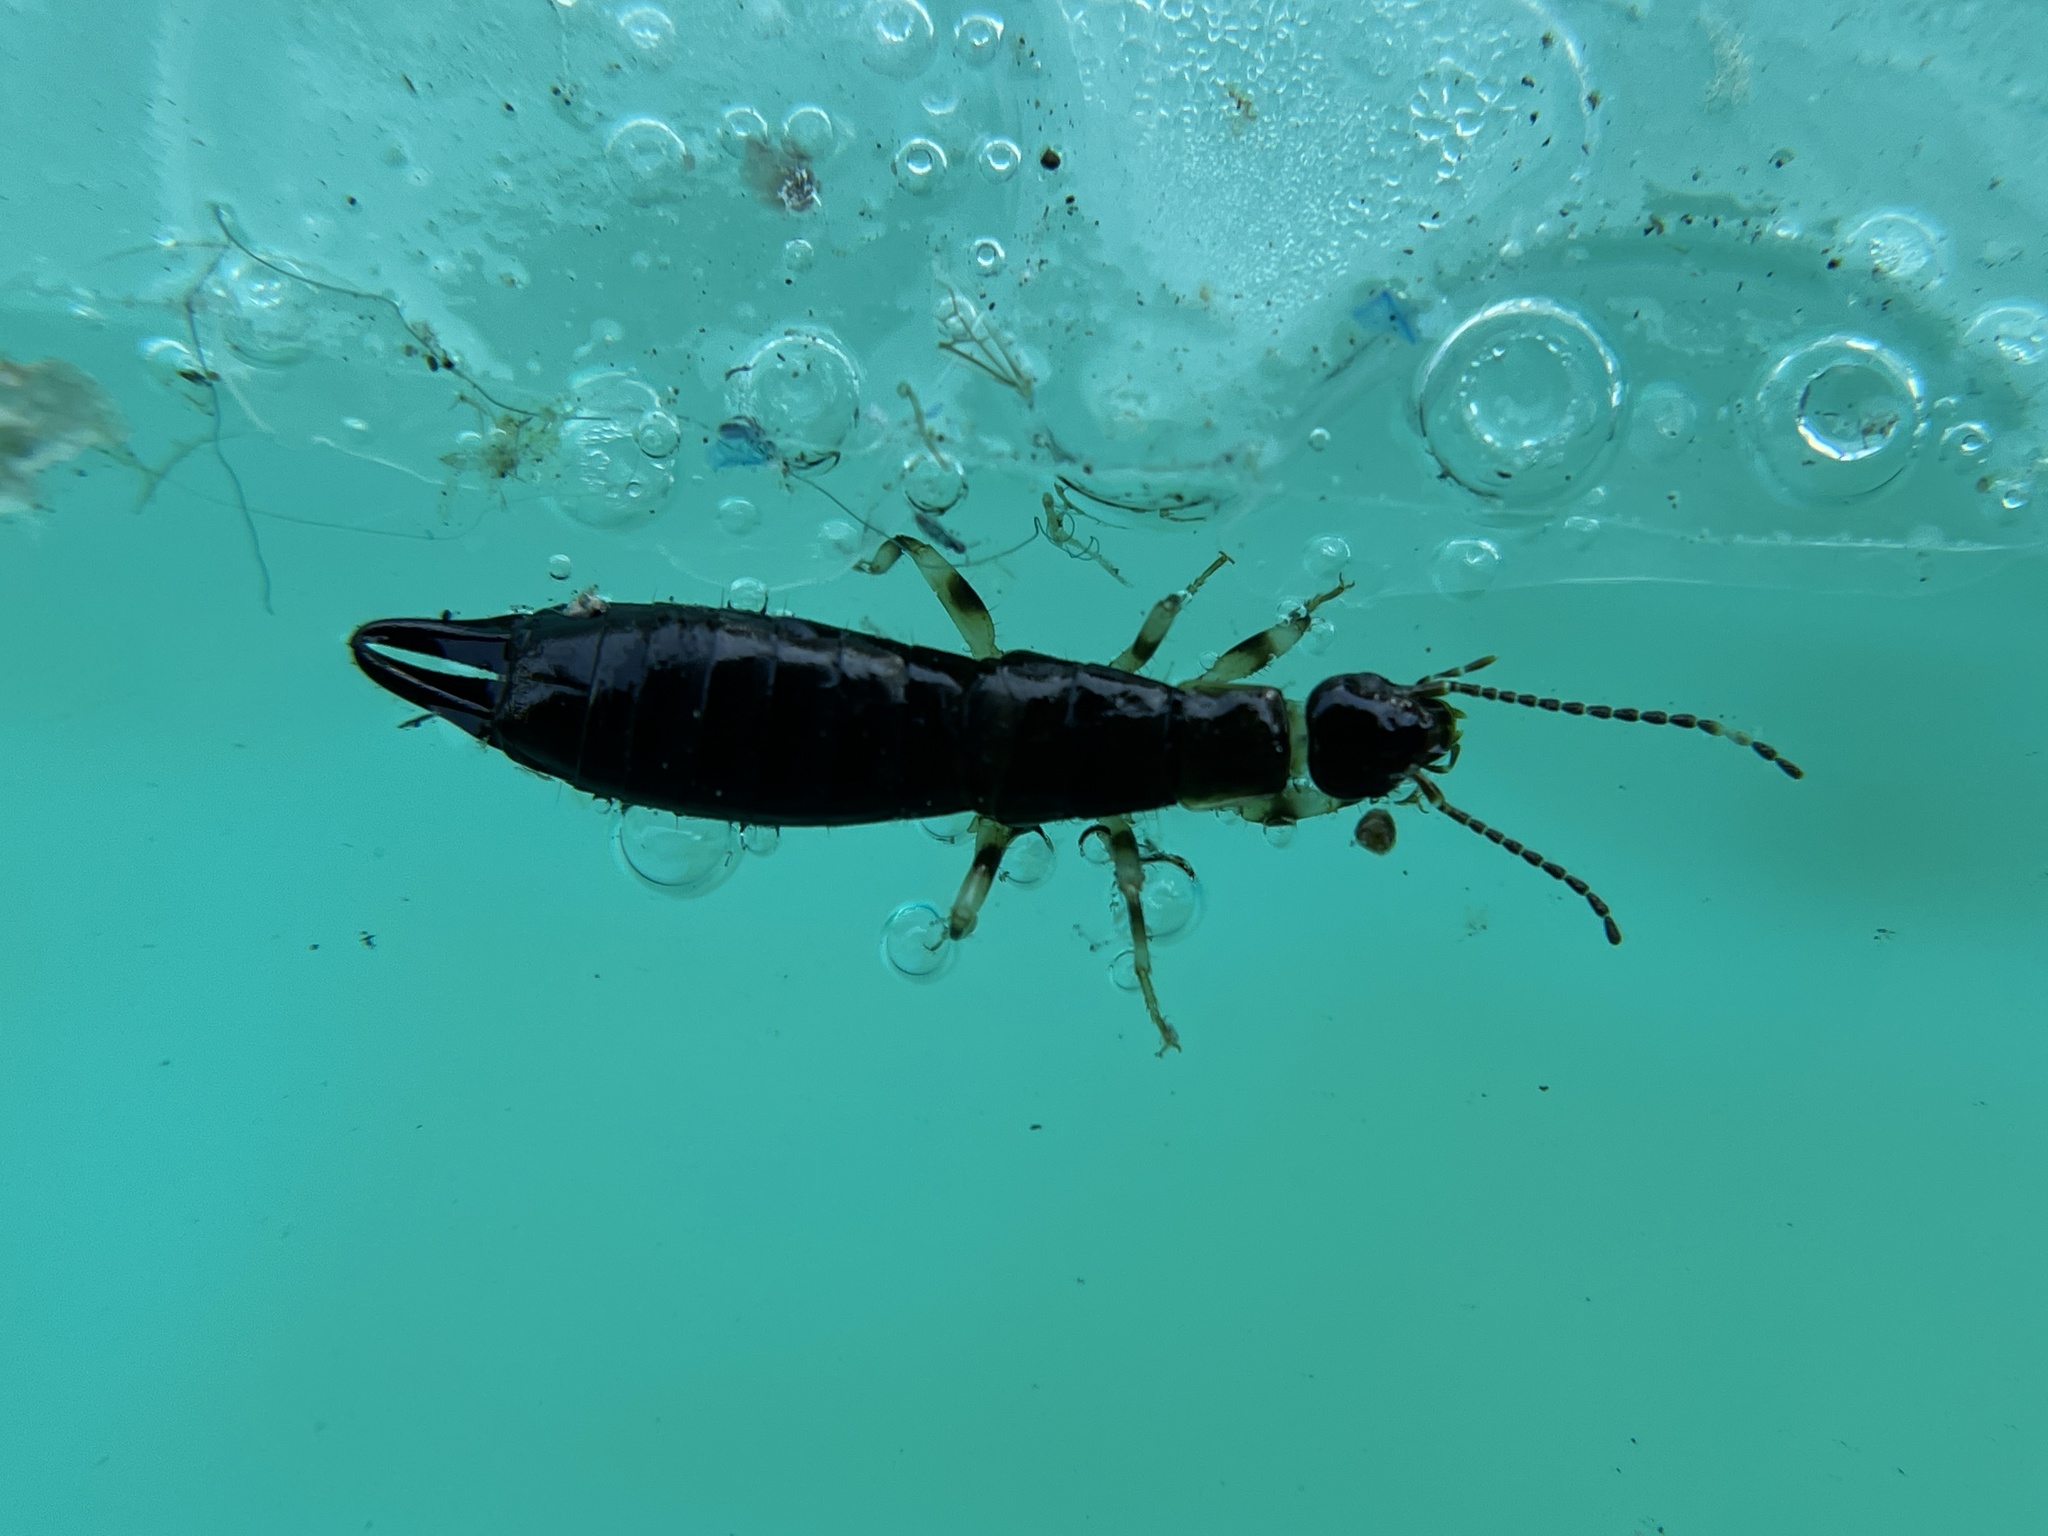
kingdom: Animalia
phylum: Arthropoda
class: Insecta
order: Dermaptera
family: Anisolabididae
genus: Euborellia
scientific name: Euborellia annulipes
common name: Ringlegged earwig
